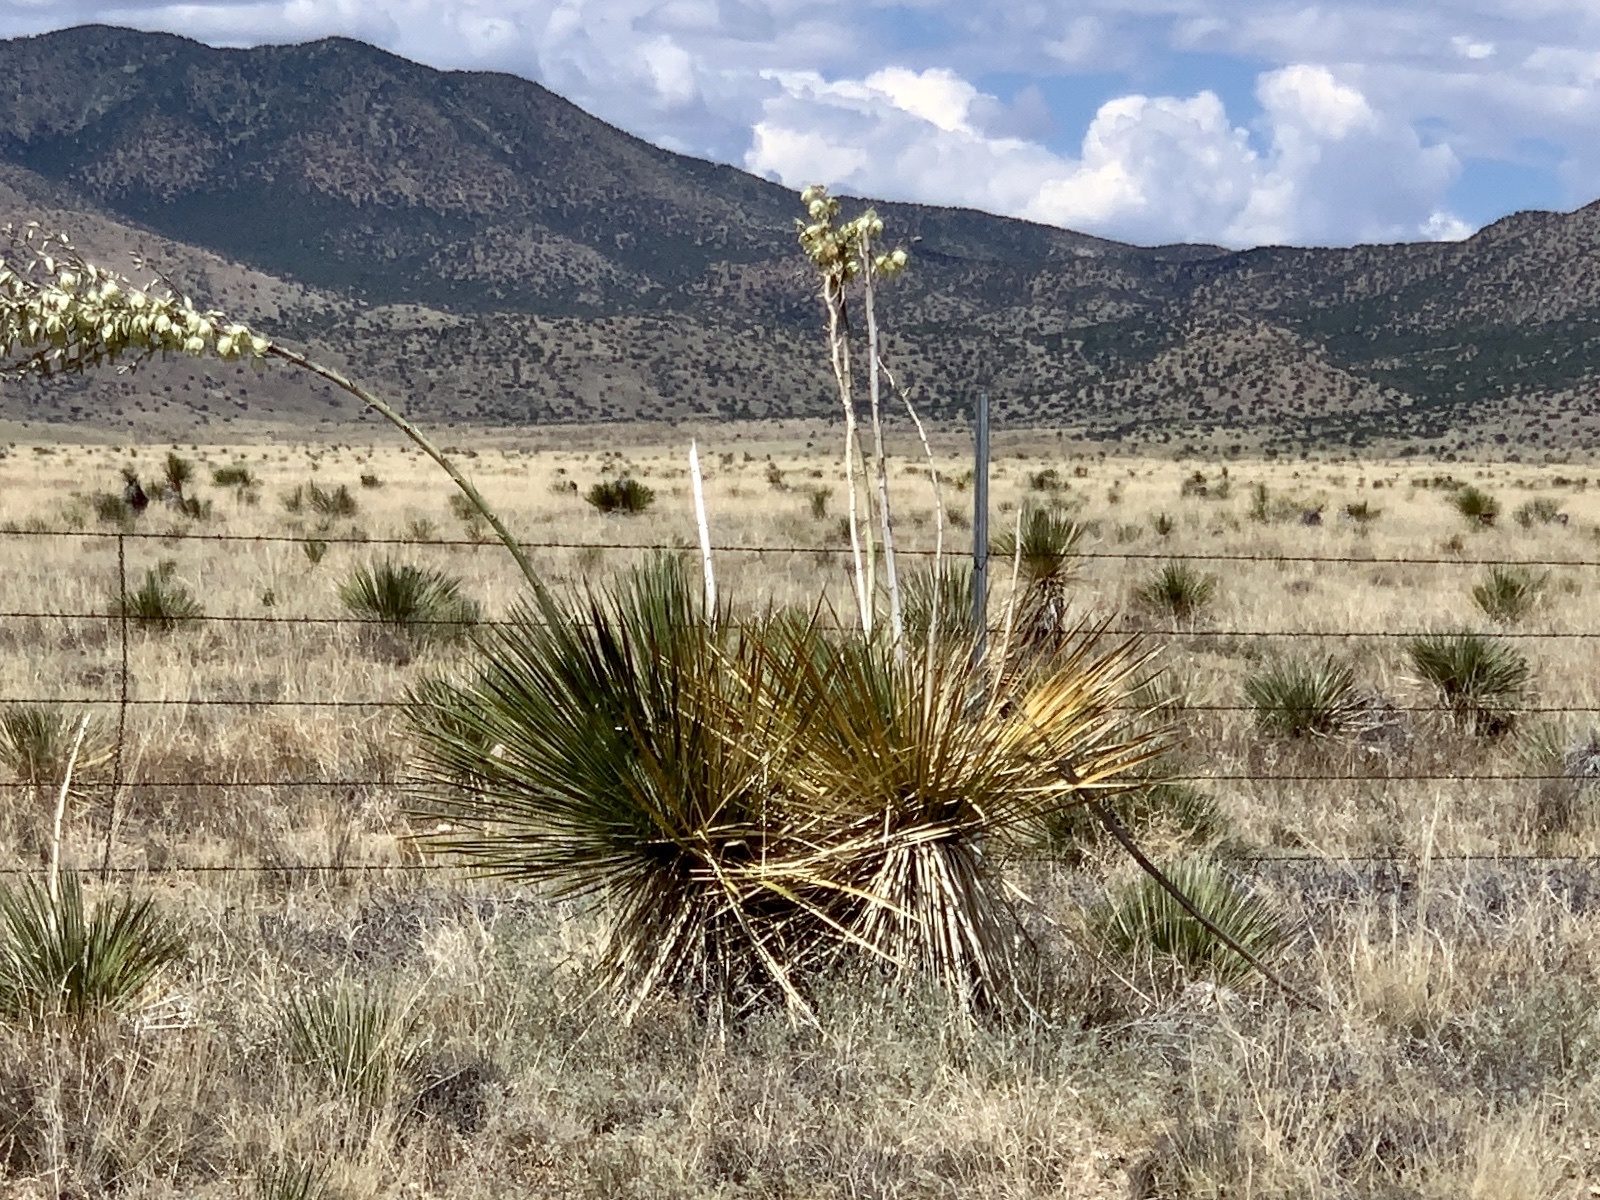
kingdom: Plantae
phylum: Tracheophyta
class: Liliopsida
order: Asparagales
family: Asparagaceae
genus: Yucca
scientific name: Yucca elata
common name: Palmella
